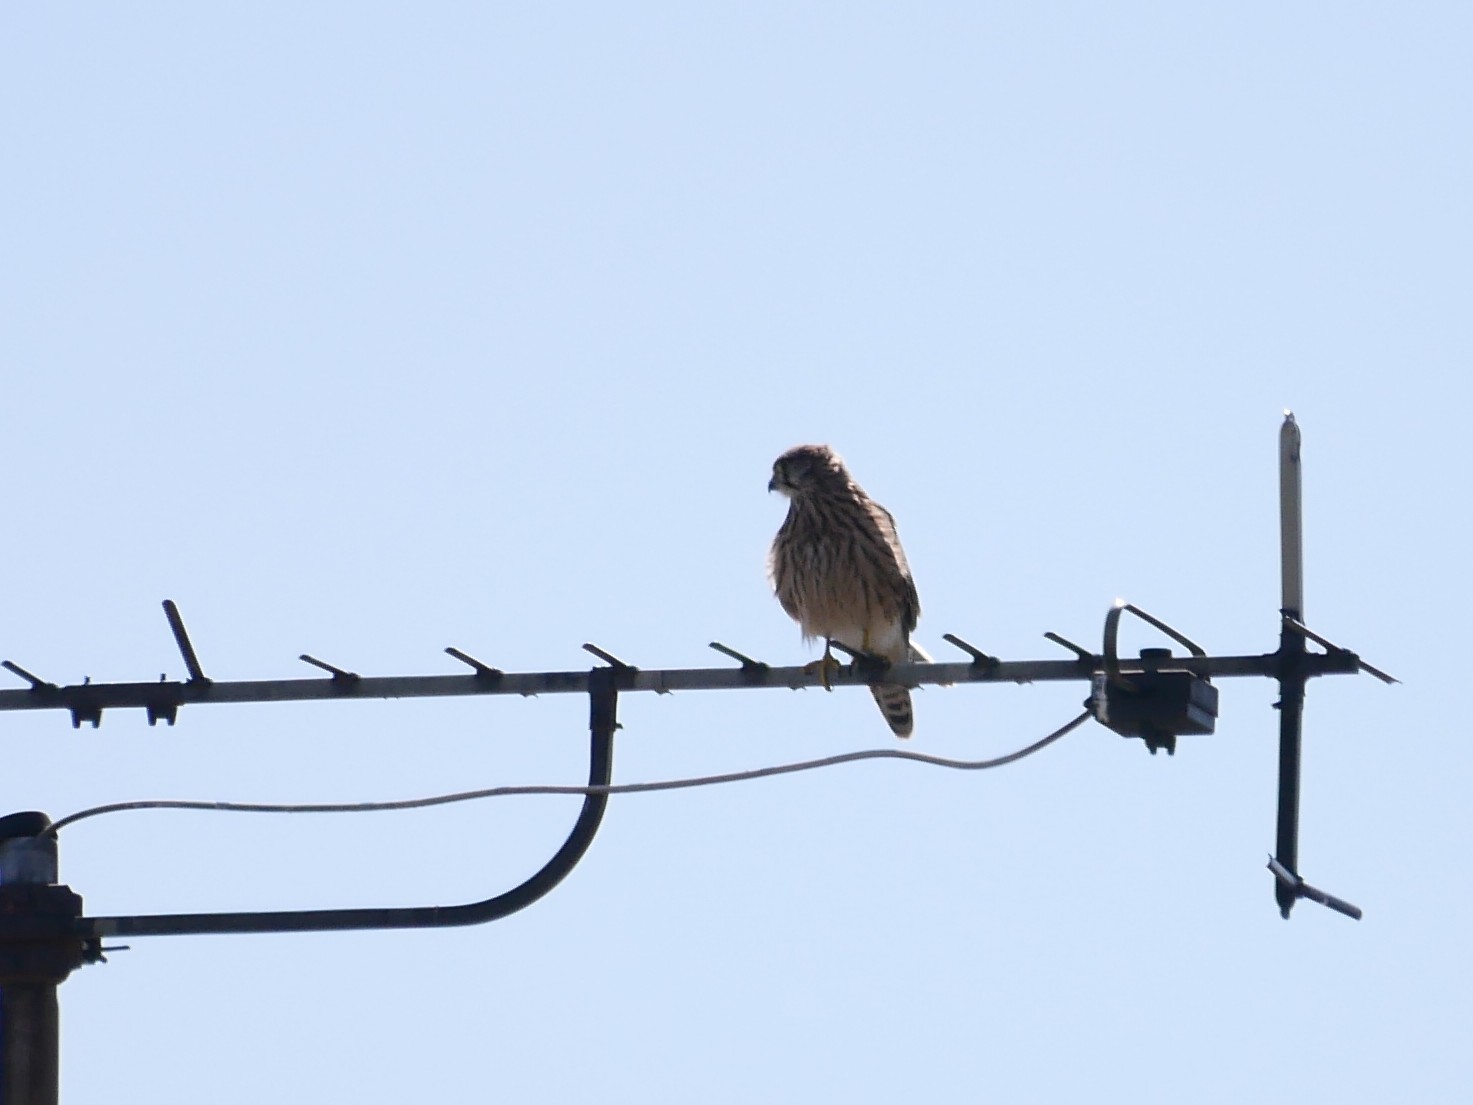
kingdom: Animalia
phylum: Chordata
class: Aves
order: Falconiformes
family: Falconidae
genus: Falco
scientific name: Falco tinnunculus
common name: Common kestrel
